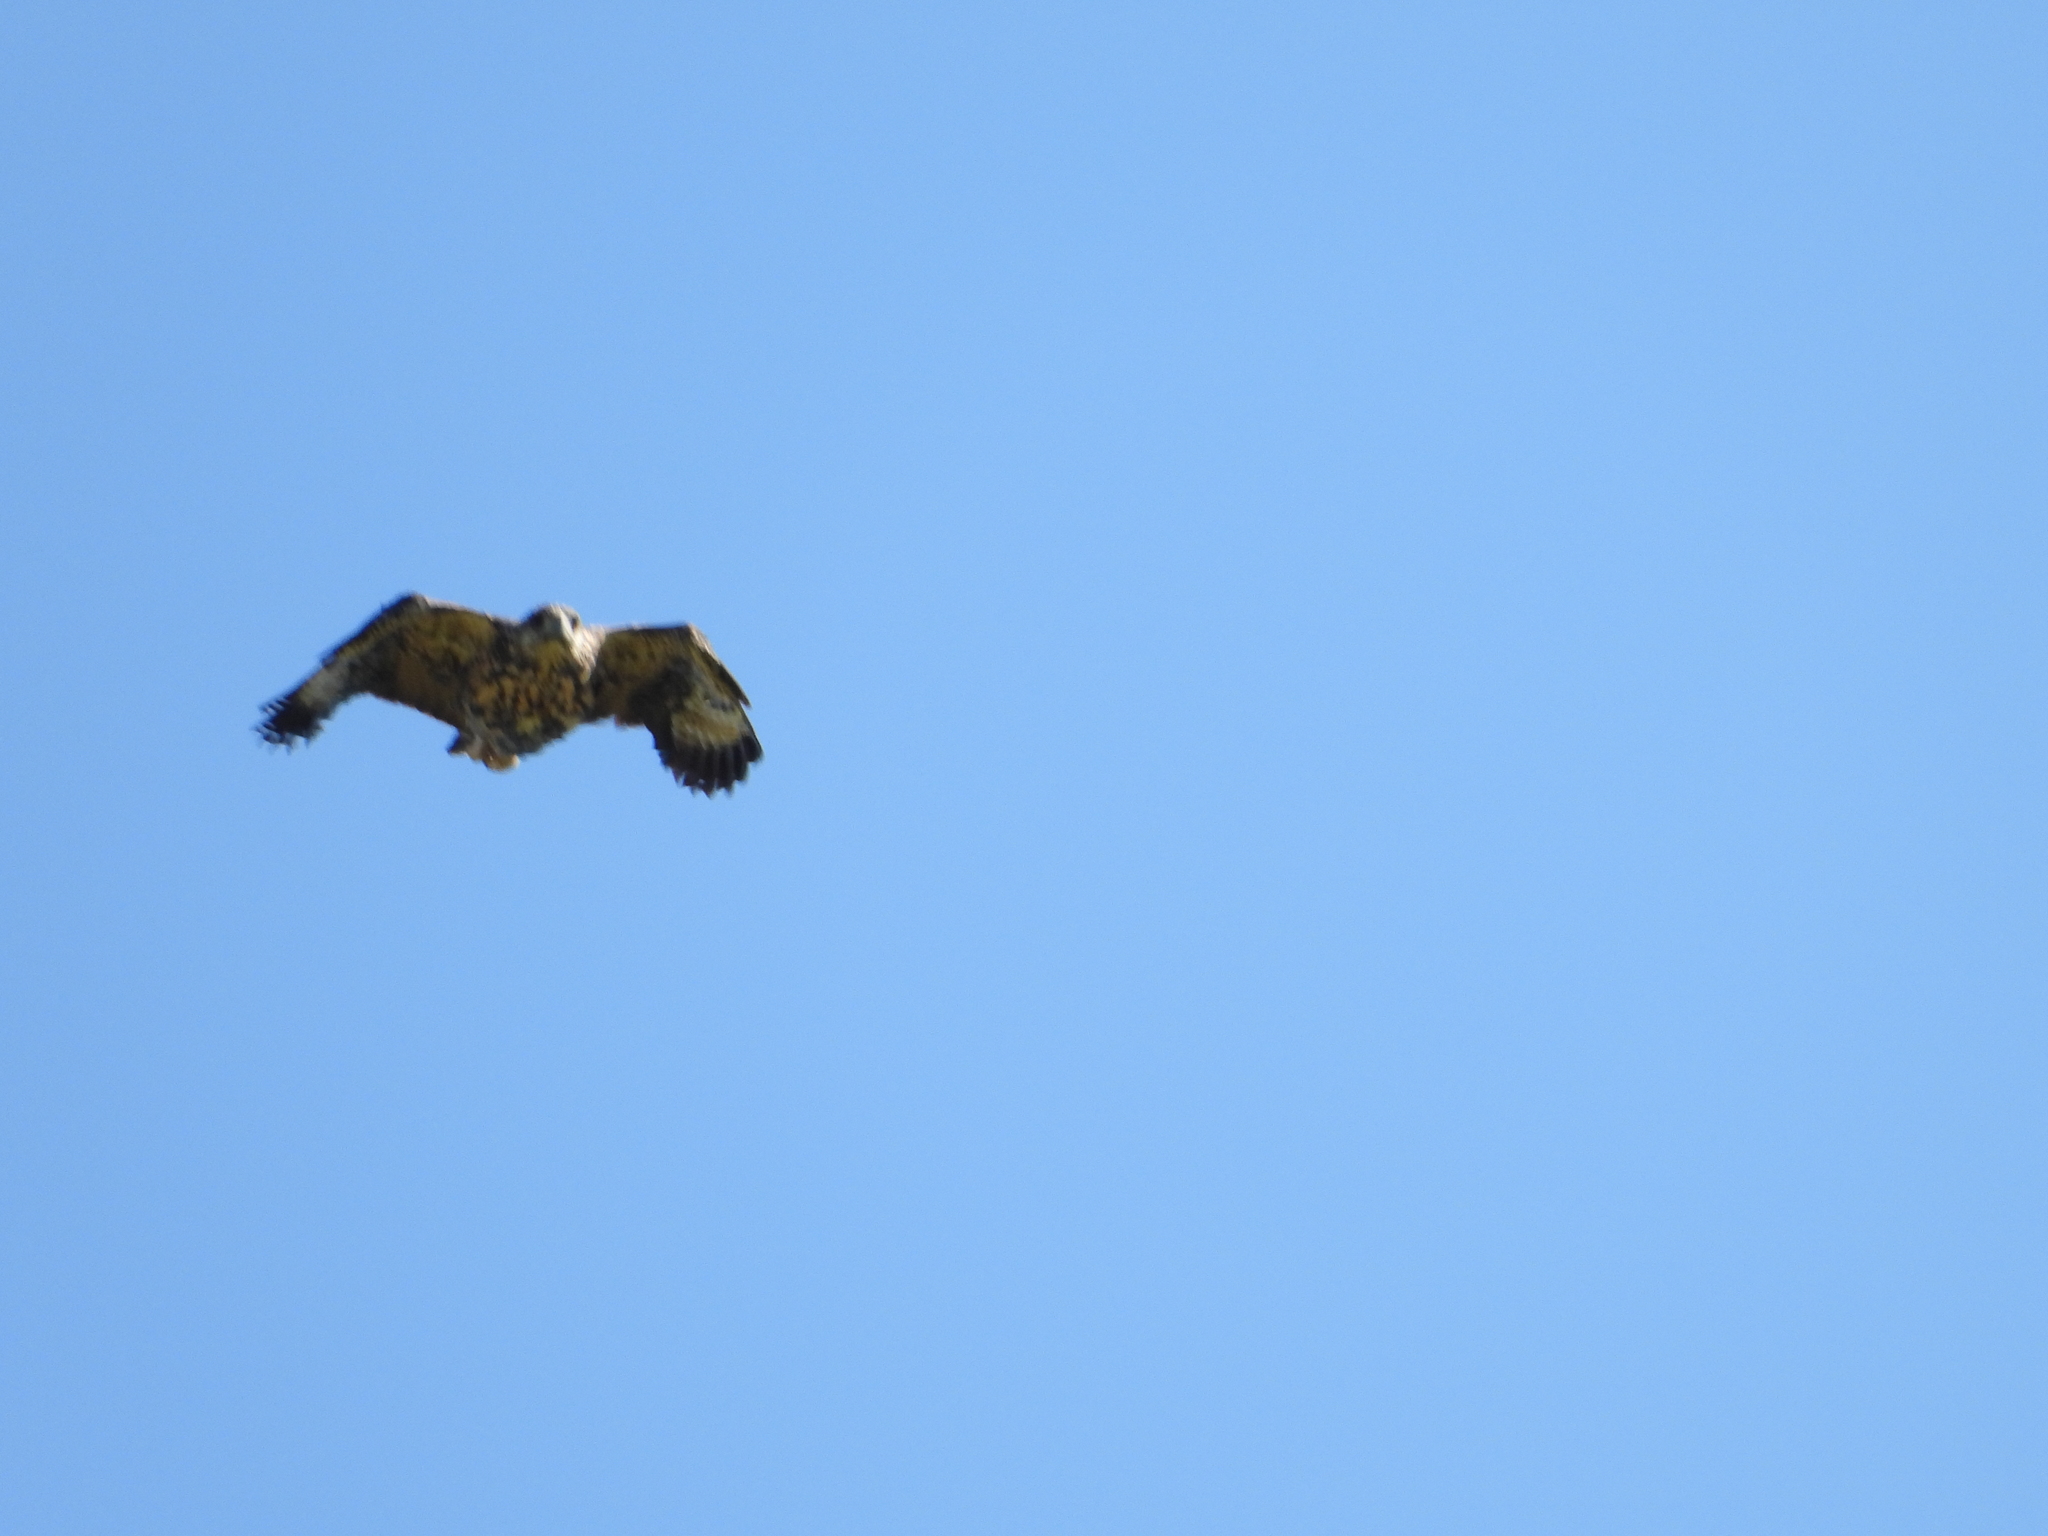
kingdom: Animalia
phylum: Chordata
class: Aves
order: Accipitriformes
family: Accipitridae
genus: Buteogallus
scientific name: Buteogallus anthracinus
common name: Common black hawk
